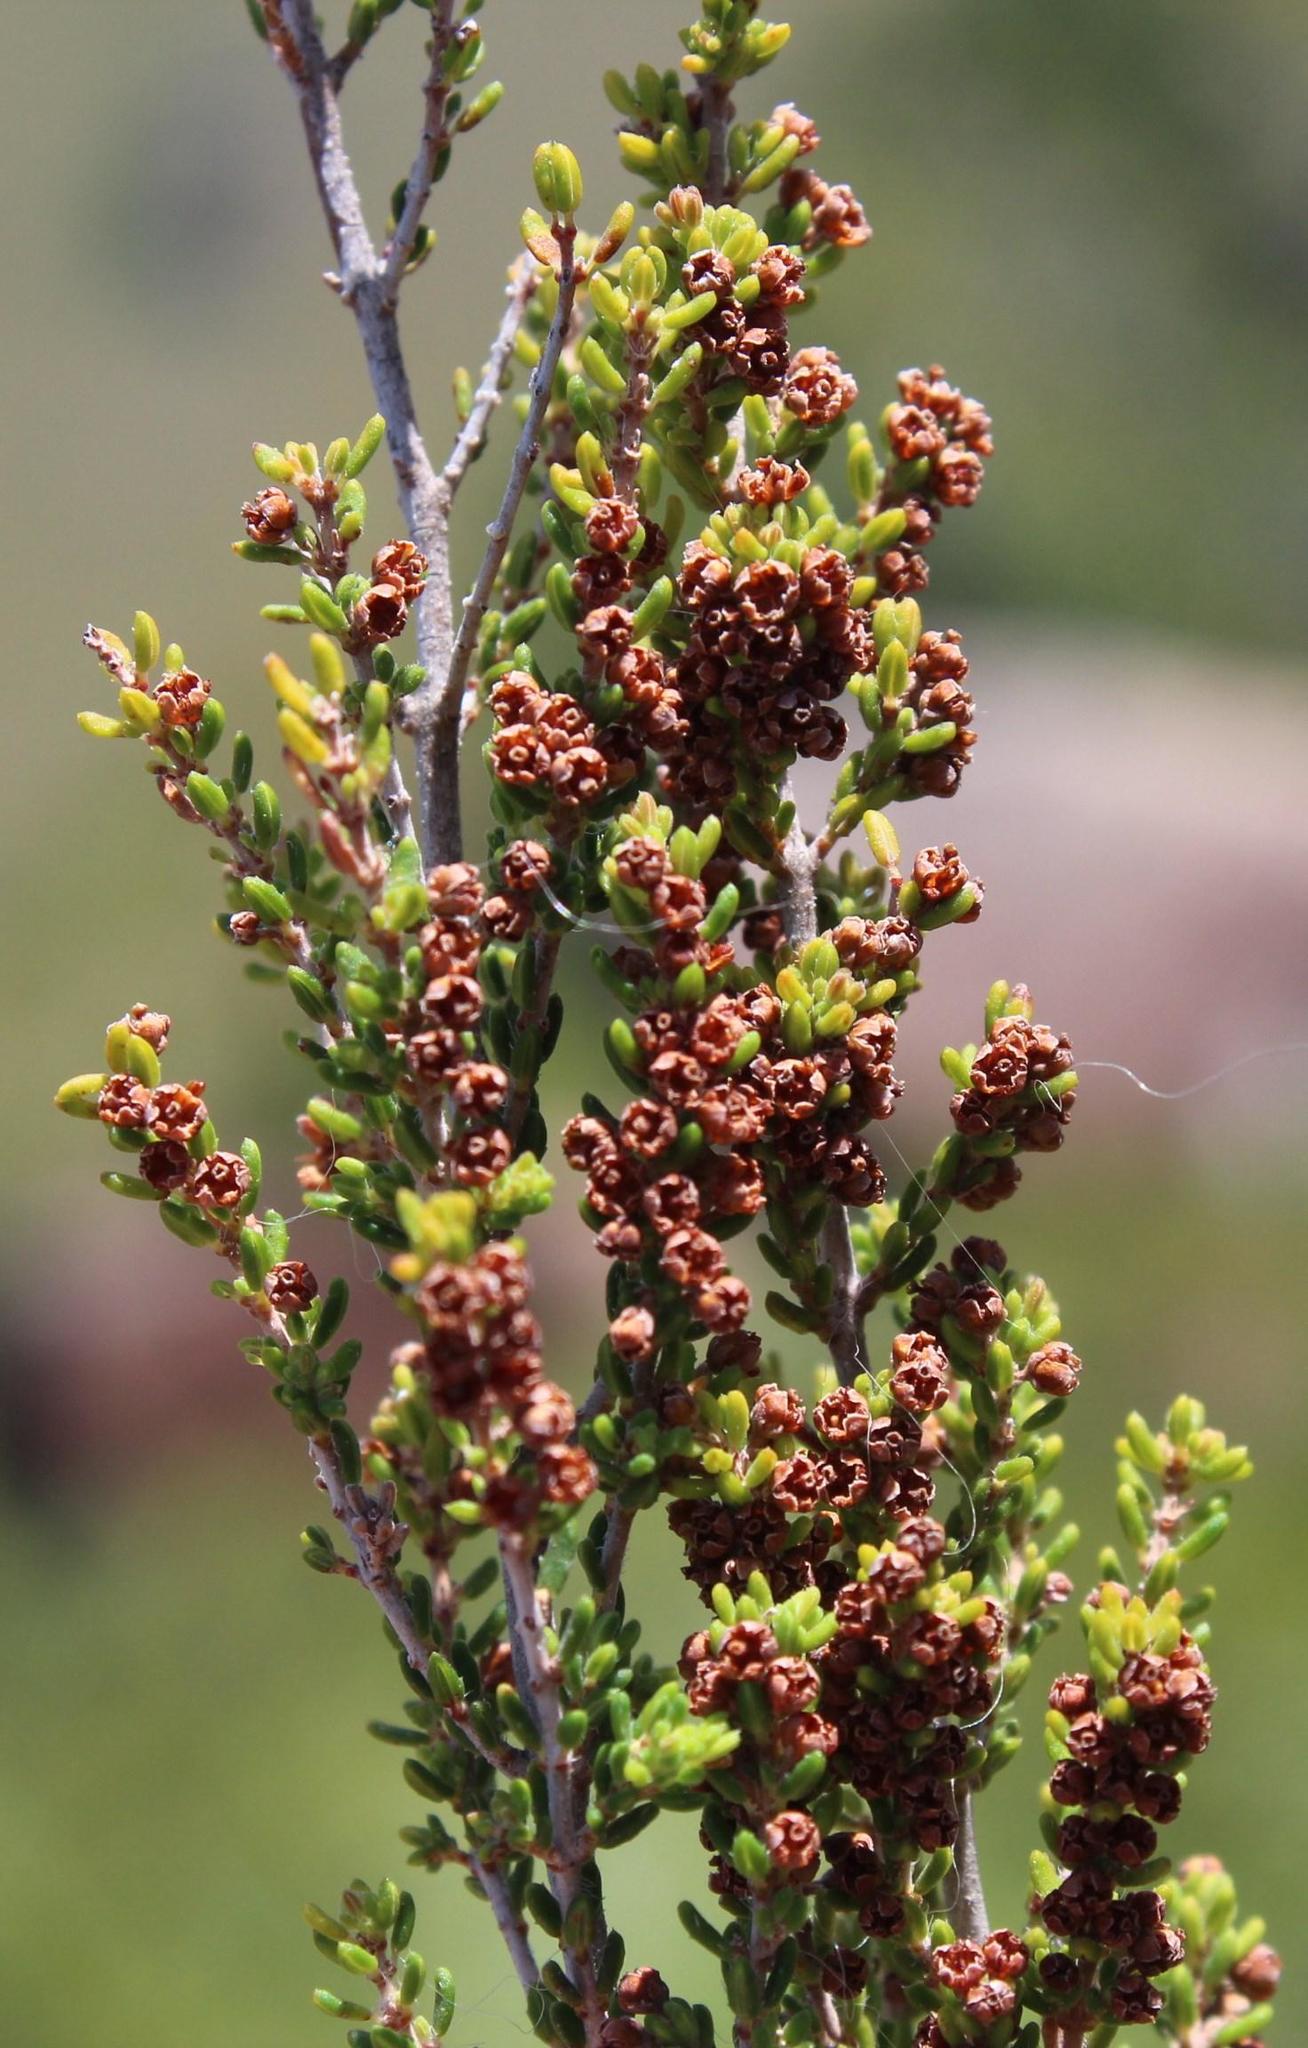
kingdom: Plantae
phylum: Tracheophyta
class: Magnoliopsida
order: Ericales
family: Ericaceae
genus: Erica
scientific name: Erica leucopelta
